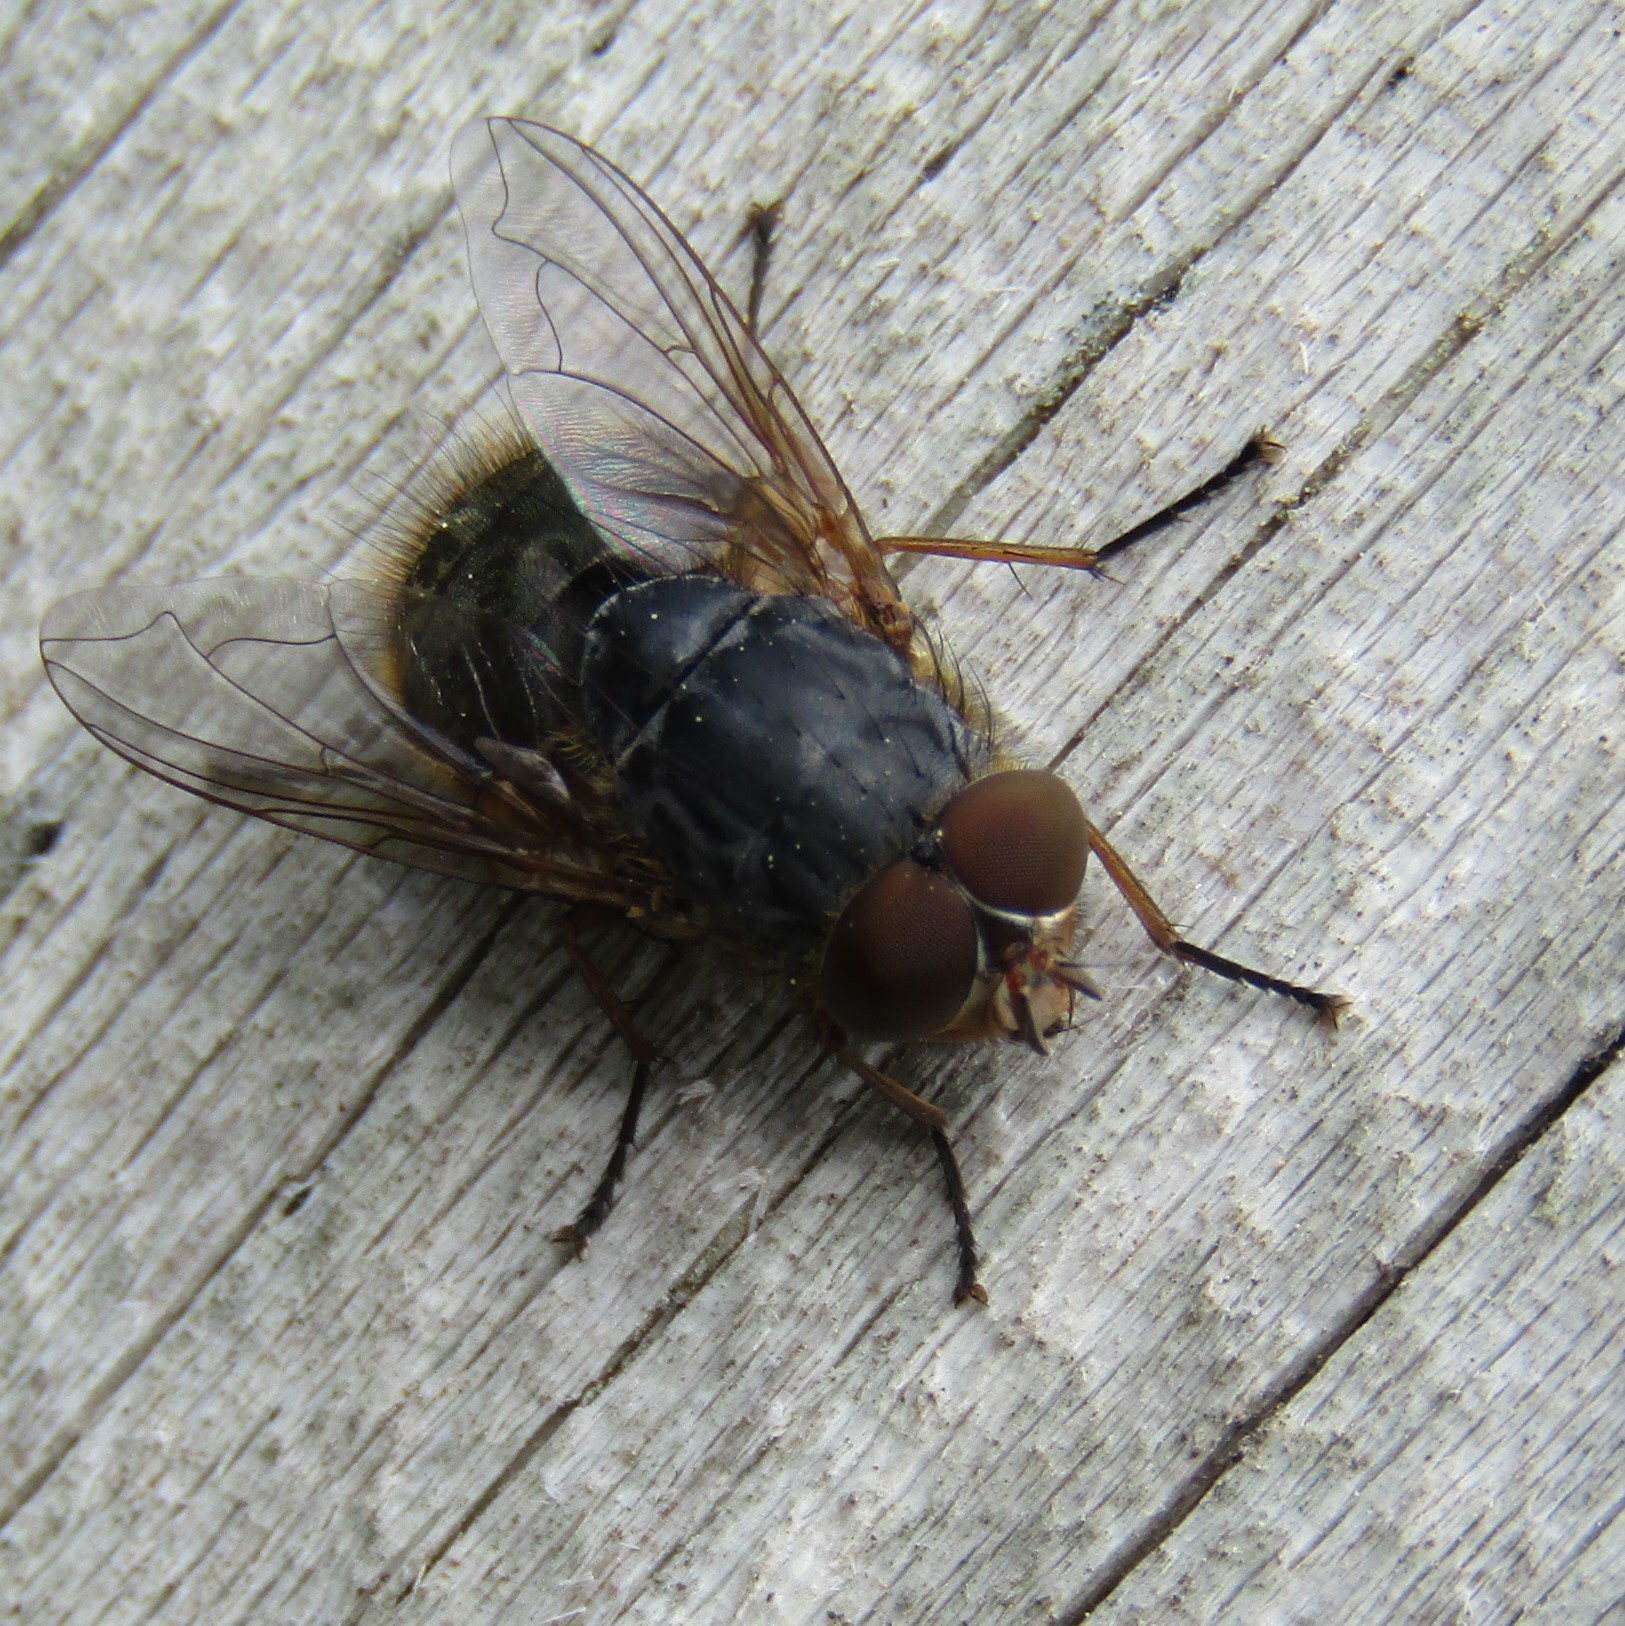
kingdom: Animalia
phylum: Arthropoda
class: Insecta
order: Diptera
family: Calliphoridae
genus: Calliphora
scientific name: Calliphora stygia
